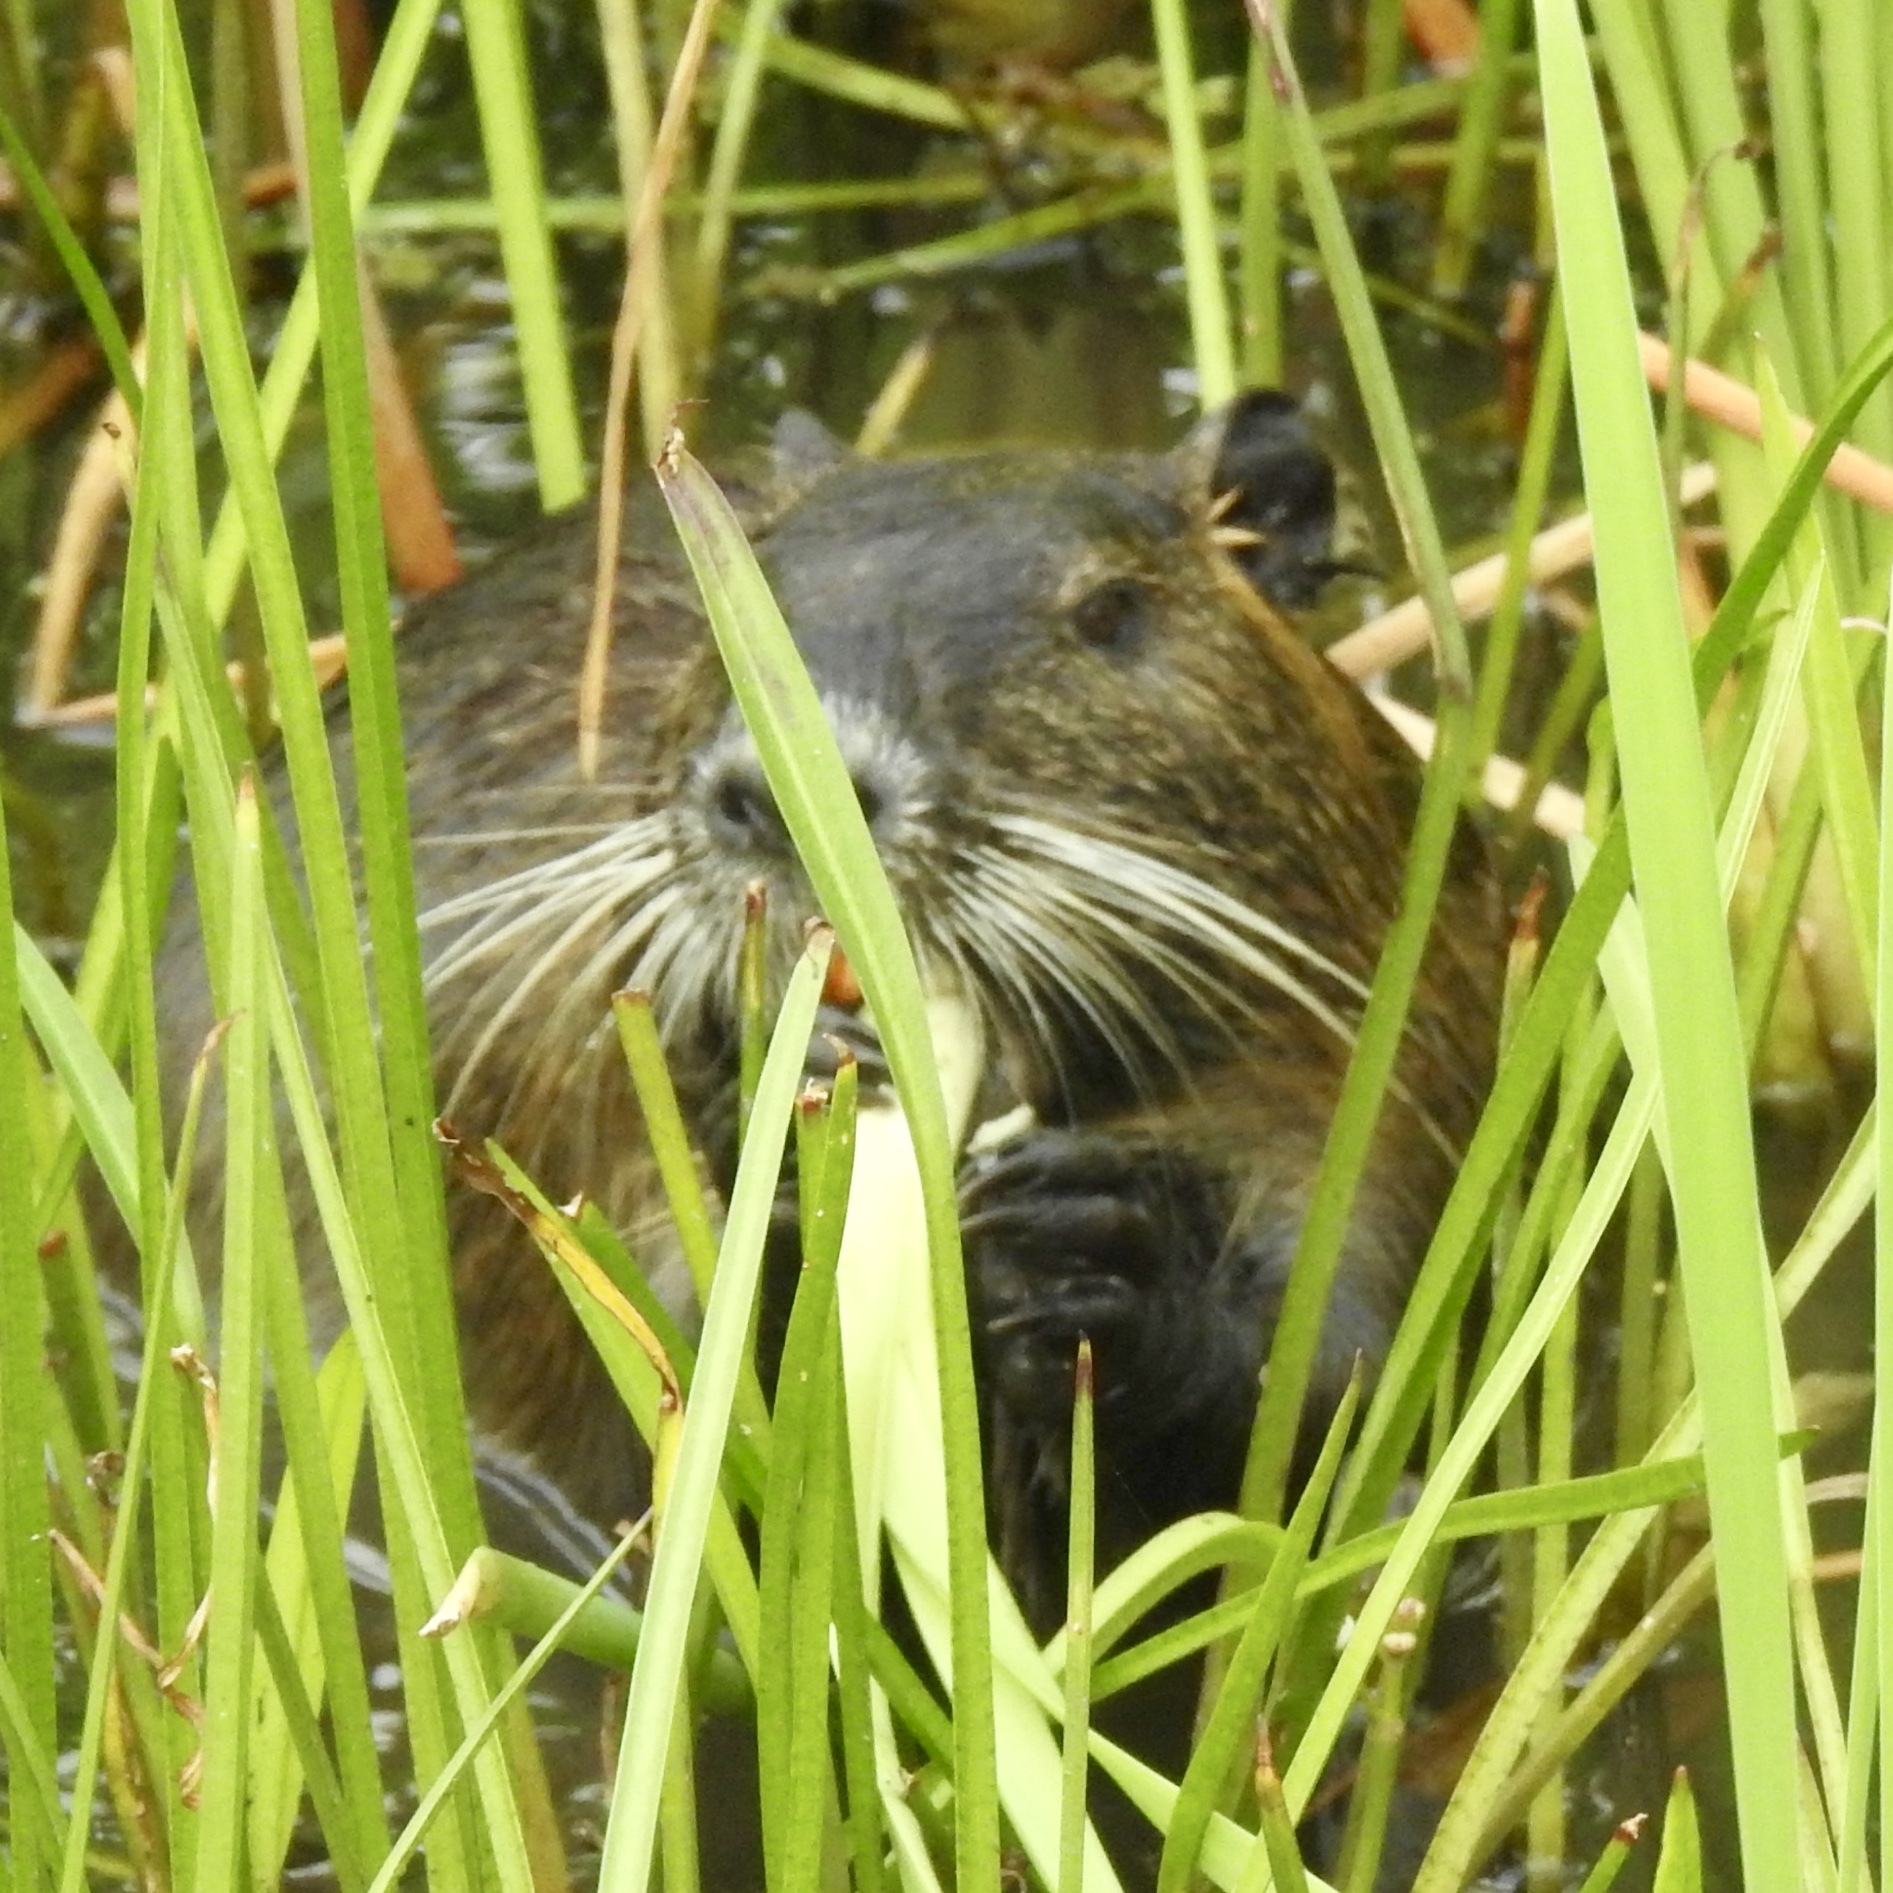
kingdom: Animalia
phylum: Chordata
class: Mammalia
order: Rodentia
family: Myocastoridae
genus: Myocastor
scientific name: Myocastor coypus
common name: Coypu
